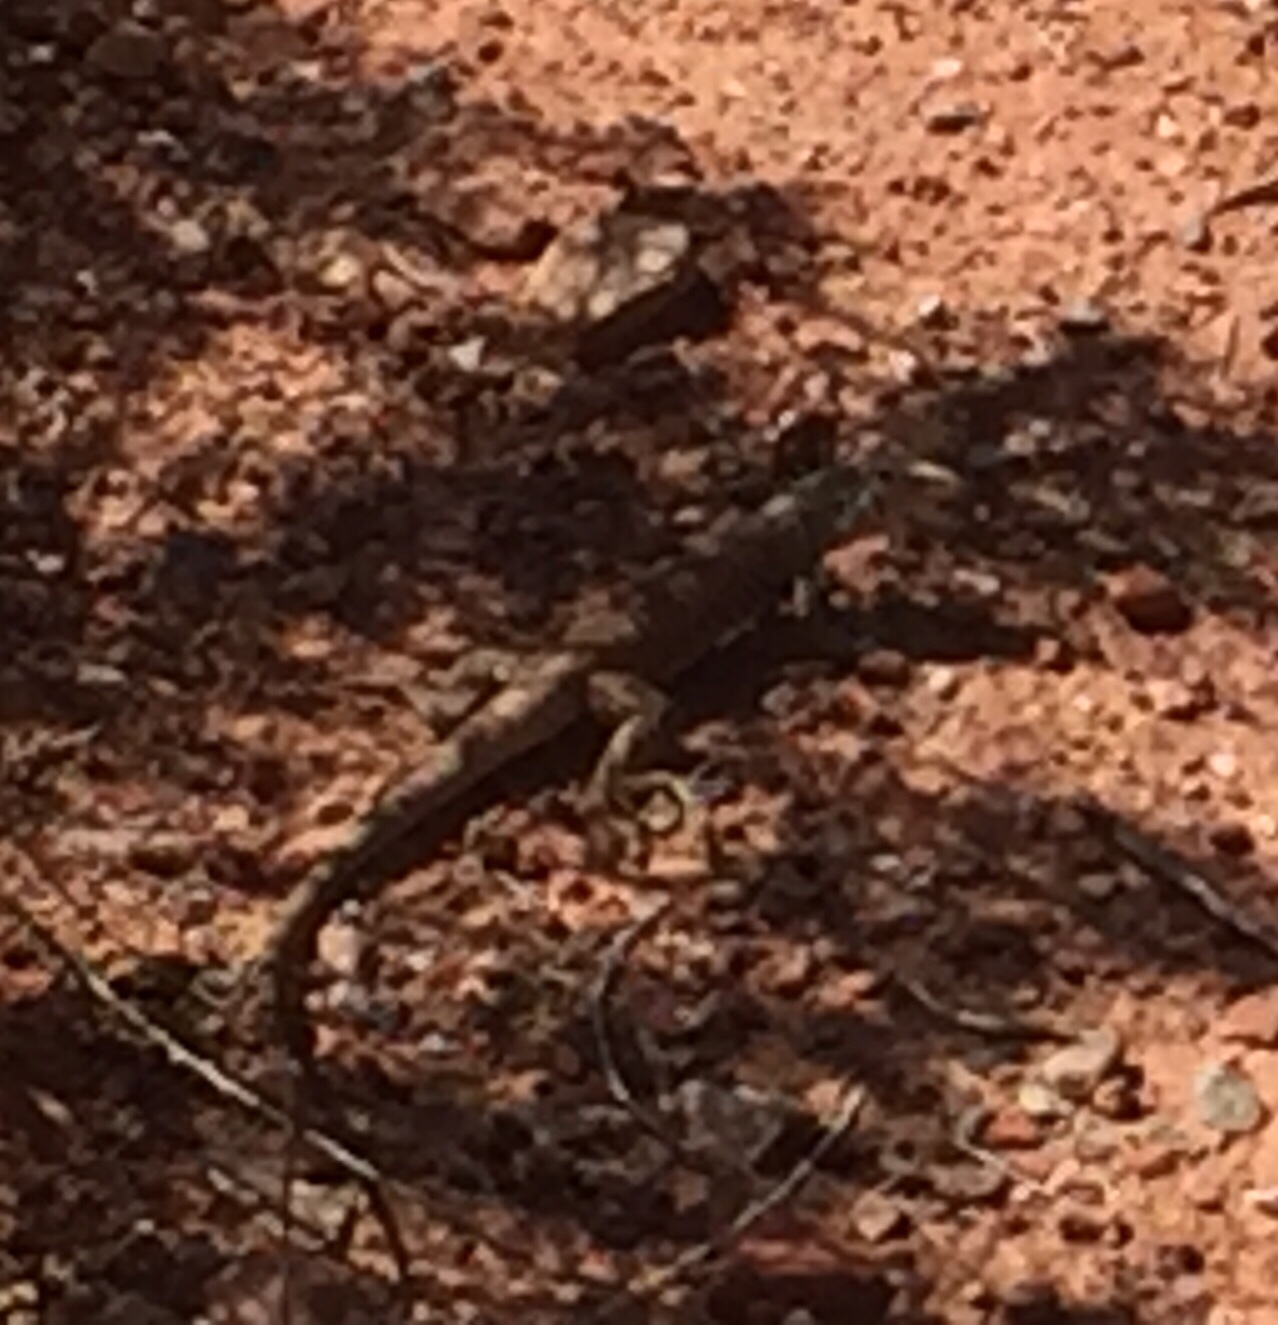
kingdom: Animalia
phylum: Chordata
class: Squamata
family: Teiidae
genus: Aspidoscelis
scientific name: Aspidoscelis tigris
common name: Tiger whiptail
